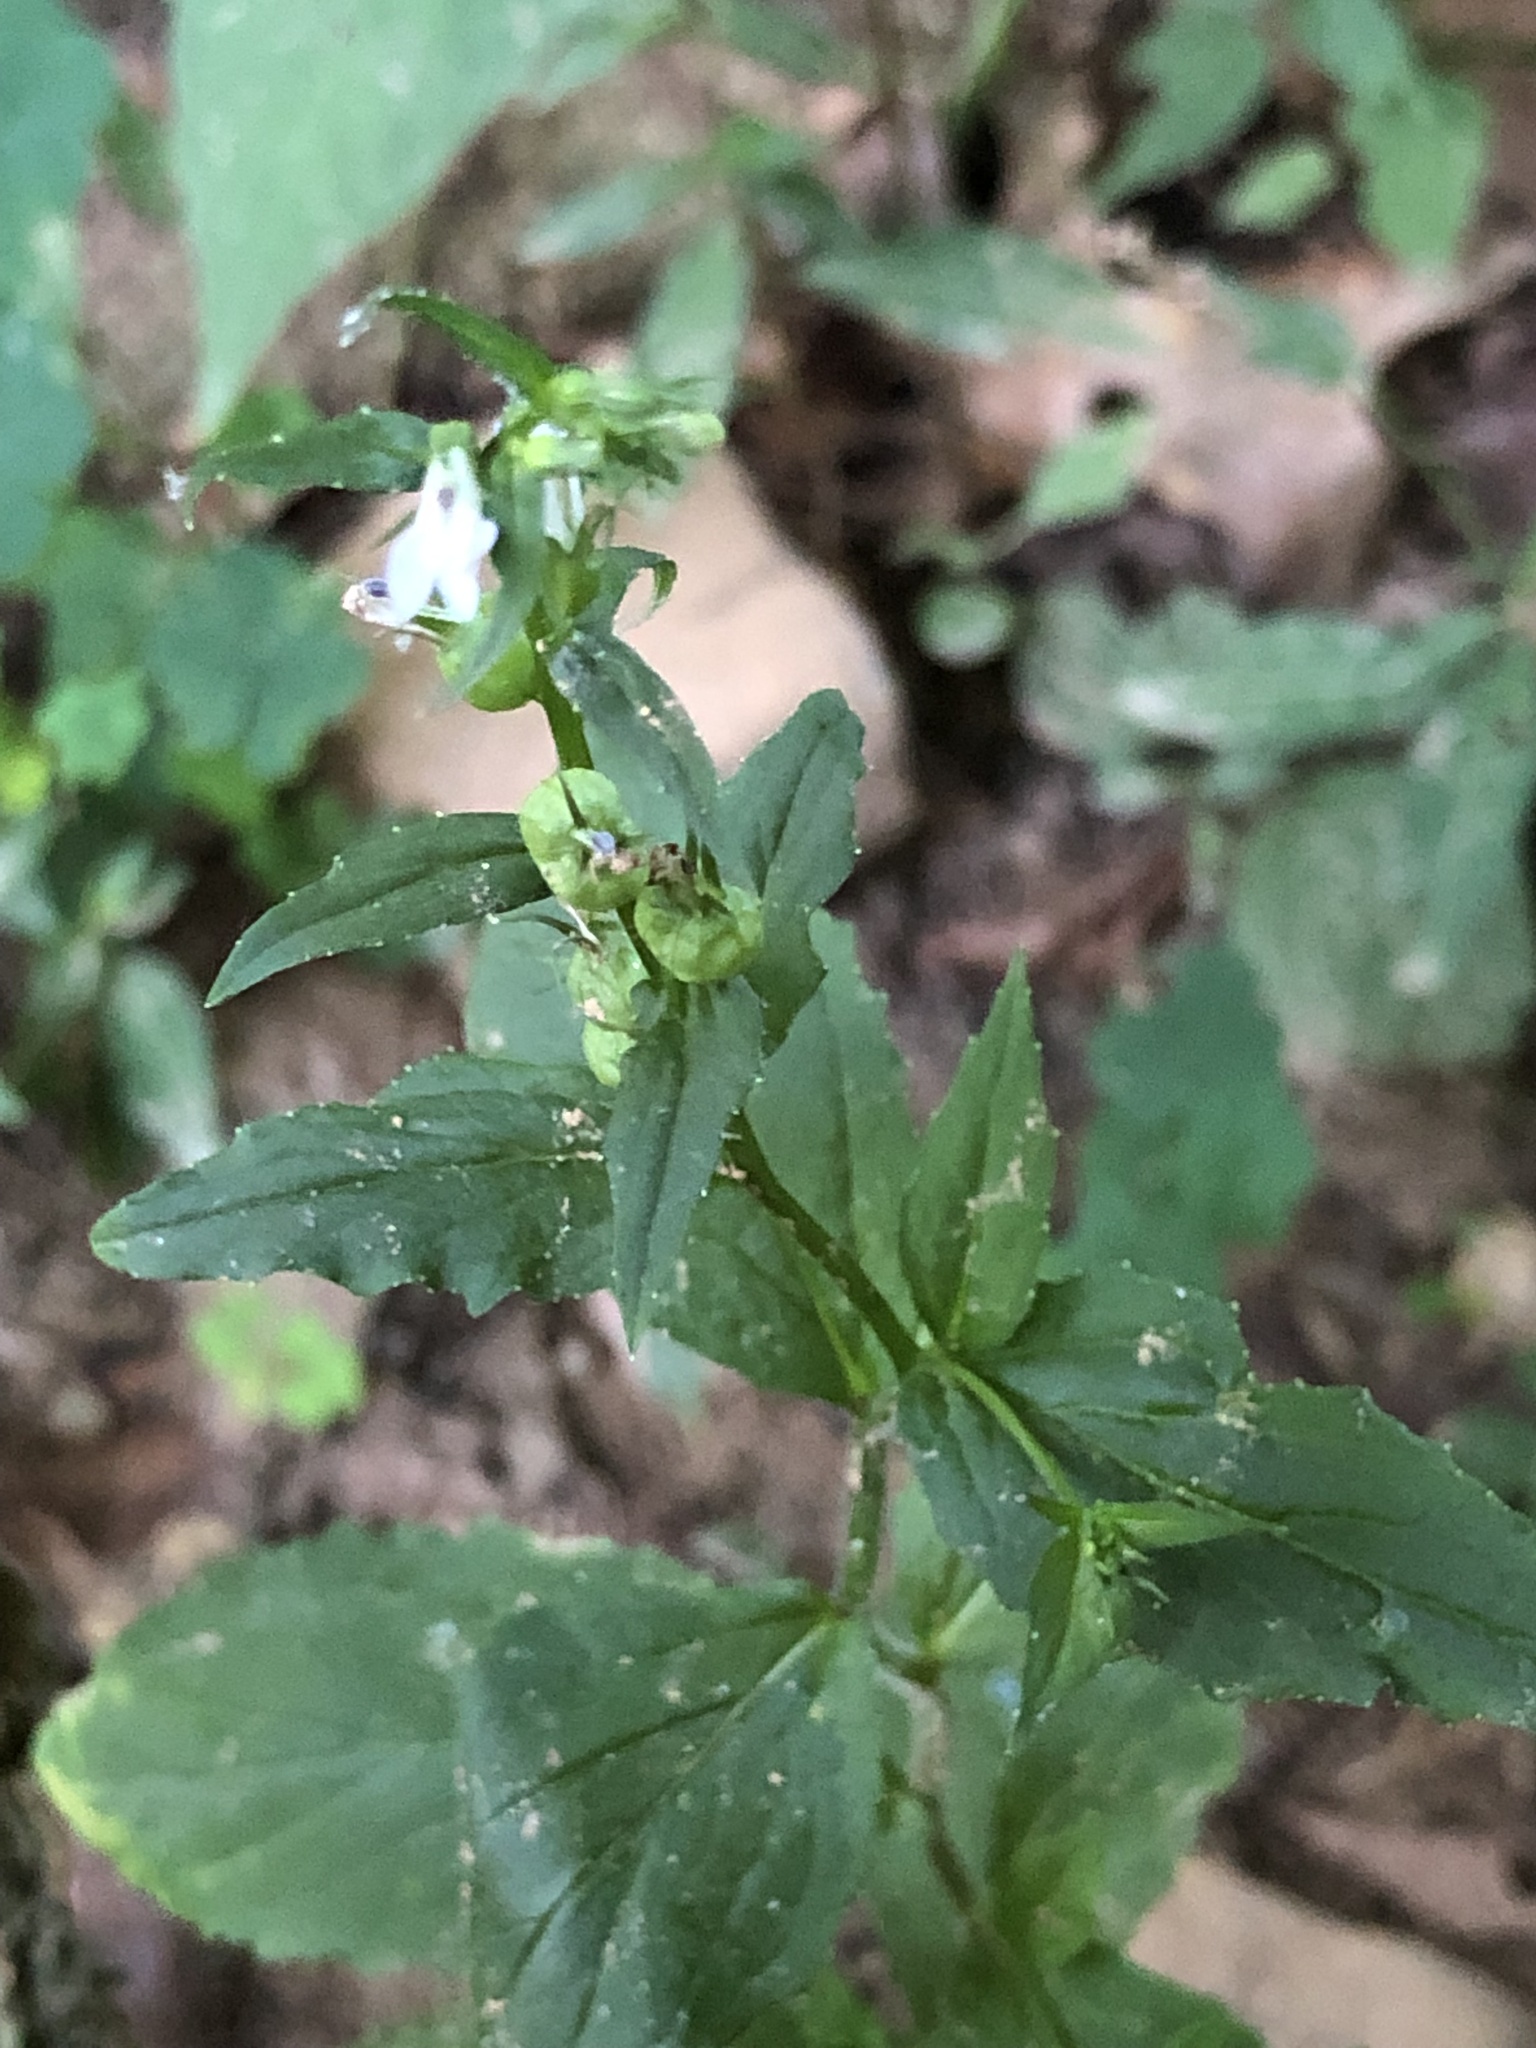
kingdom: Plantae
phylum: Tracheophyta
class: Magnoliopsida
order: Asterales
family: Campanulaceae
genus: Lobelia
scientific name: Lobelia inflata
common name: Indian tobacco
